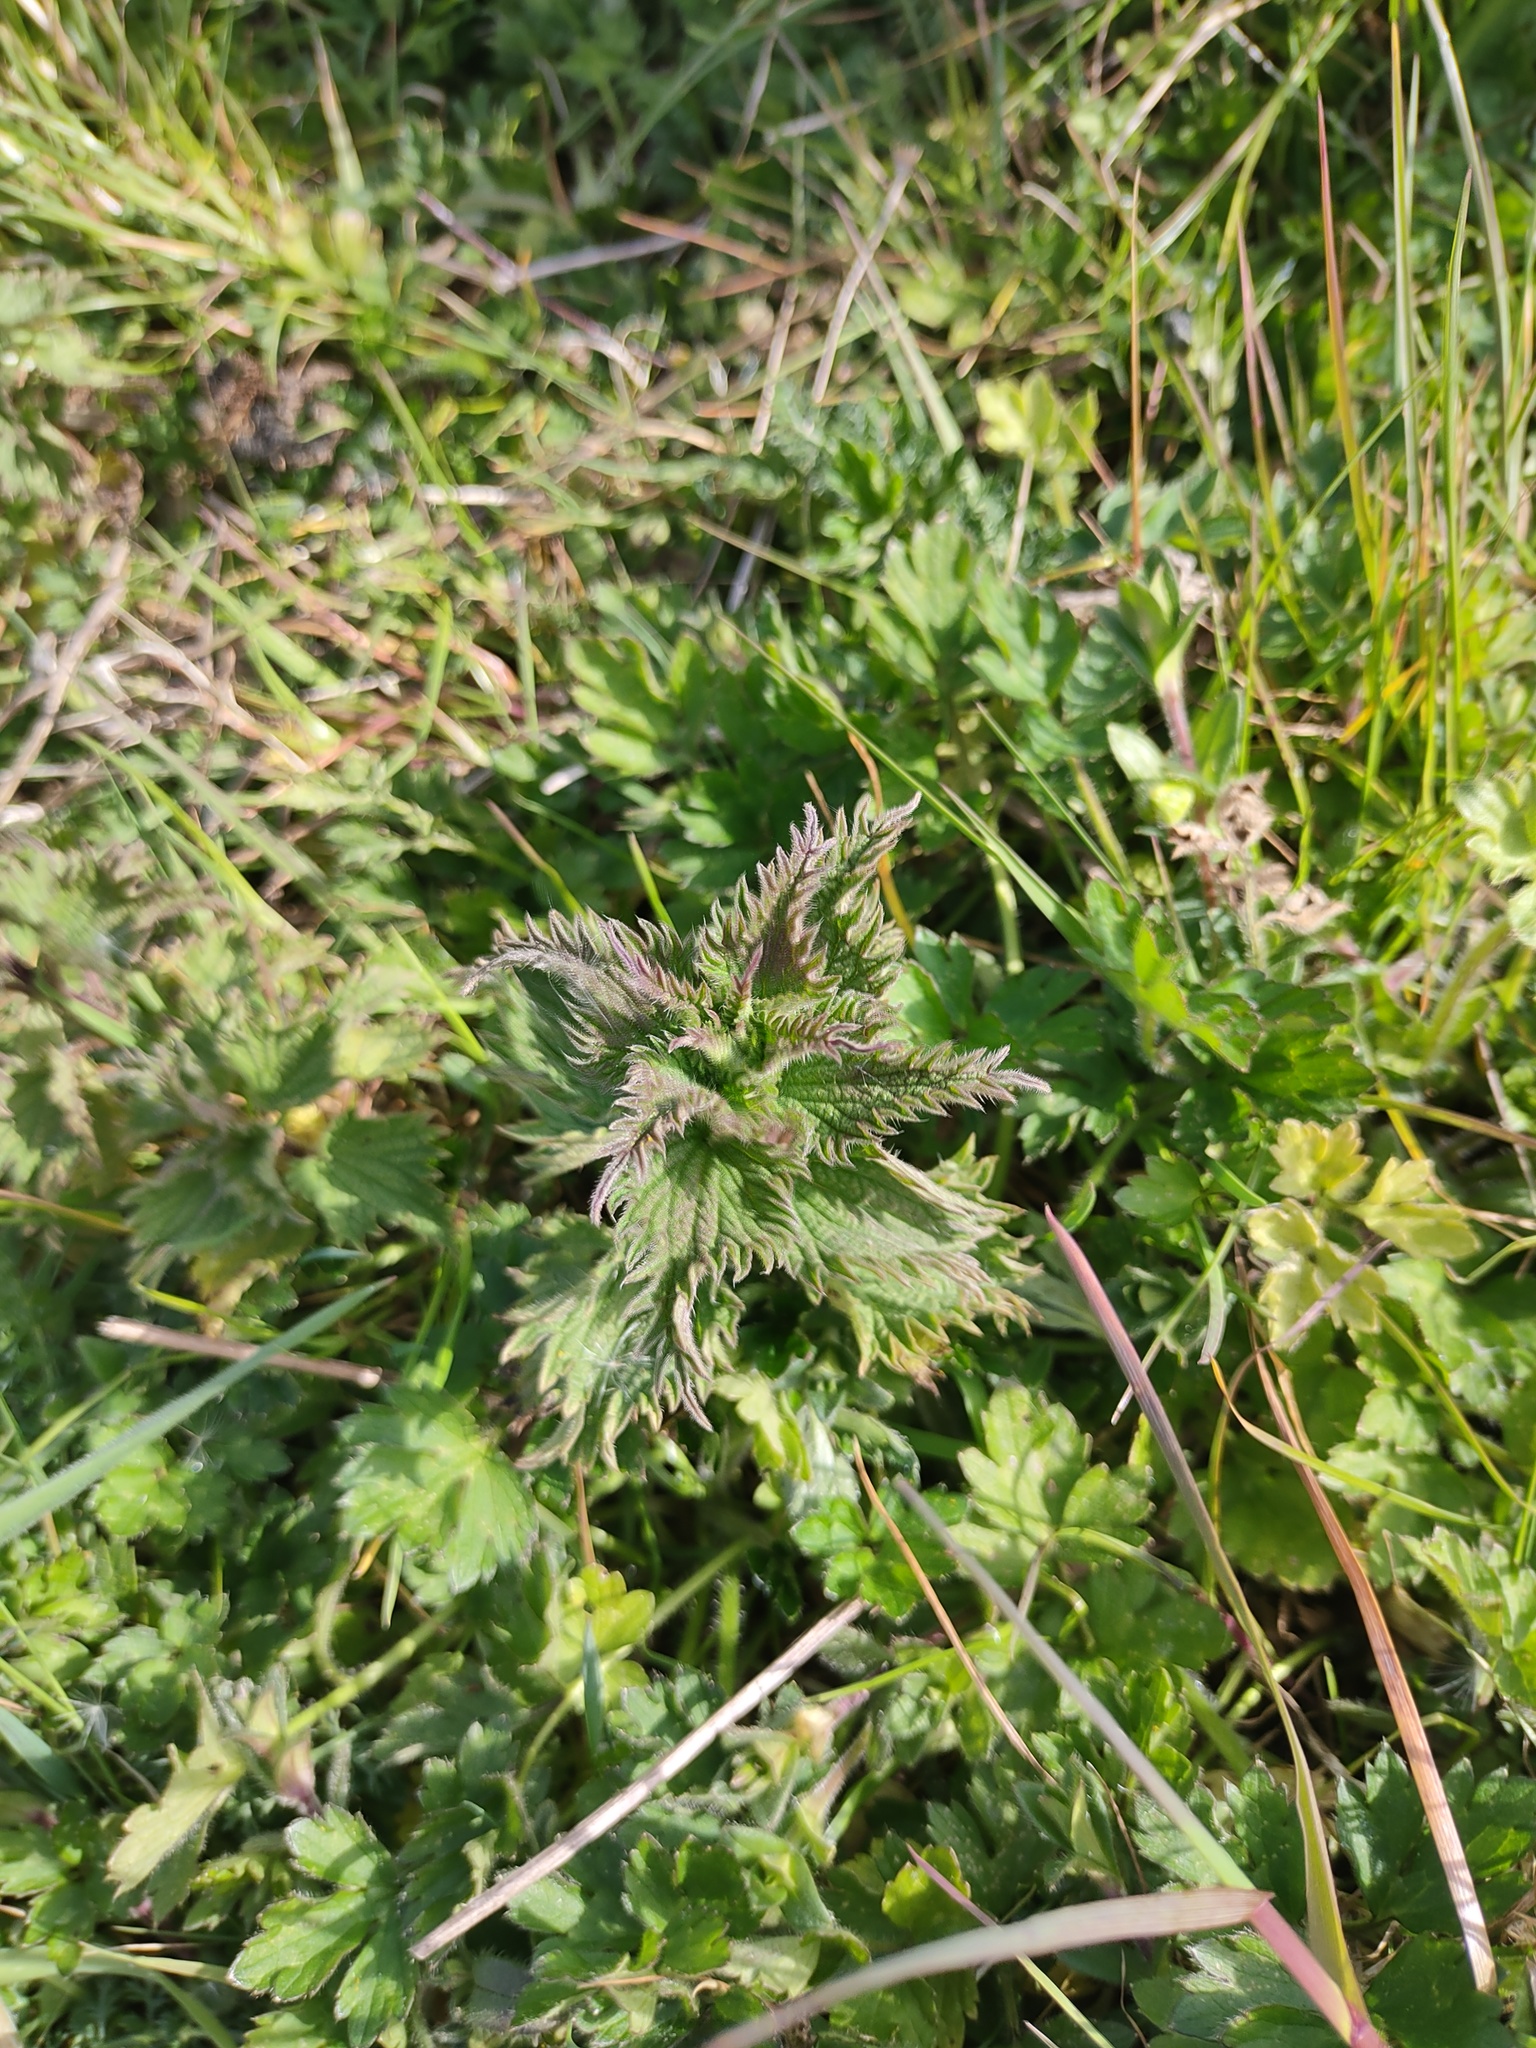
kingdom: Plantae
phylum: Tracheophyta
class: Magnoliopsida
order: Rosales
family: Urticaceae
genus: Urtica
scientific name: Urtica dioica
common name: Common nettle
